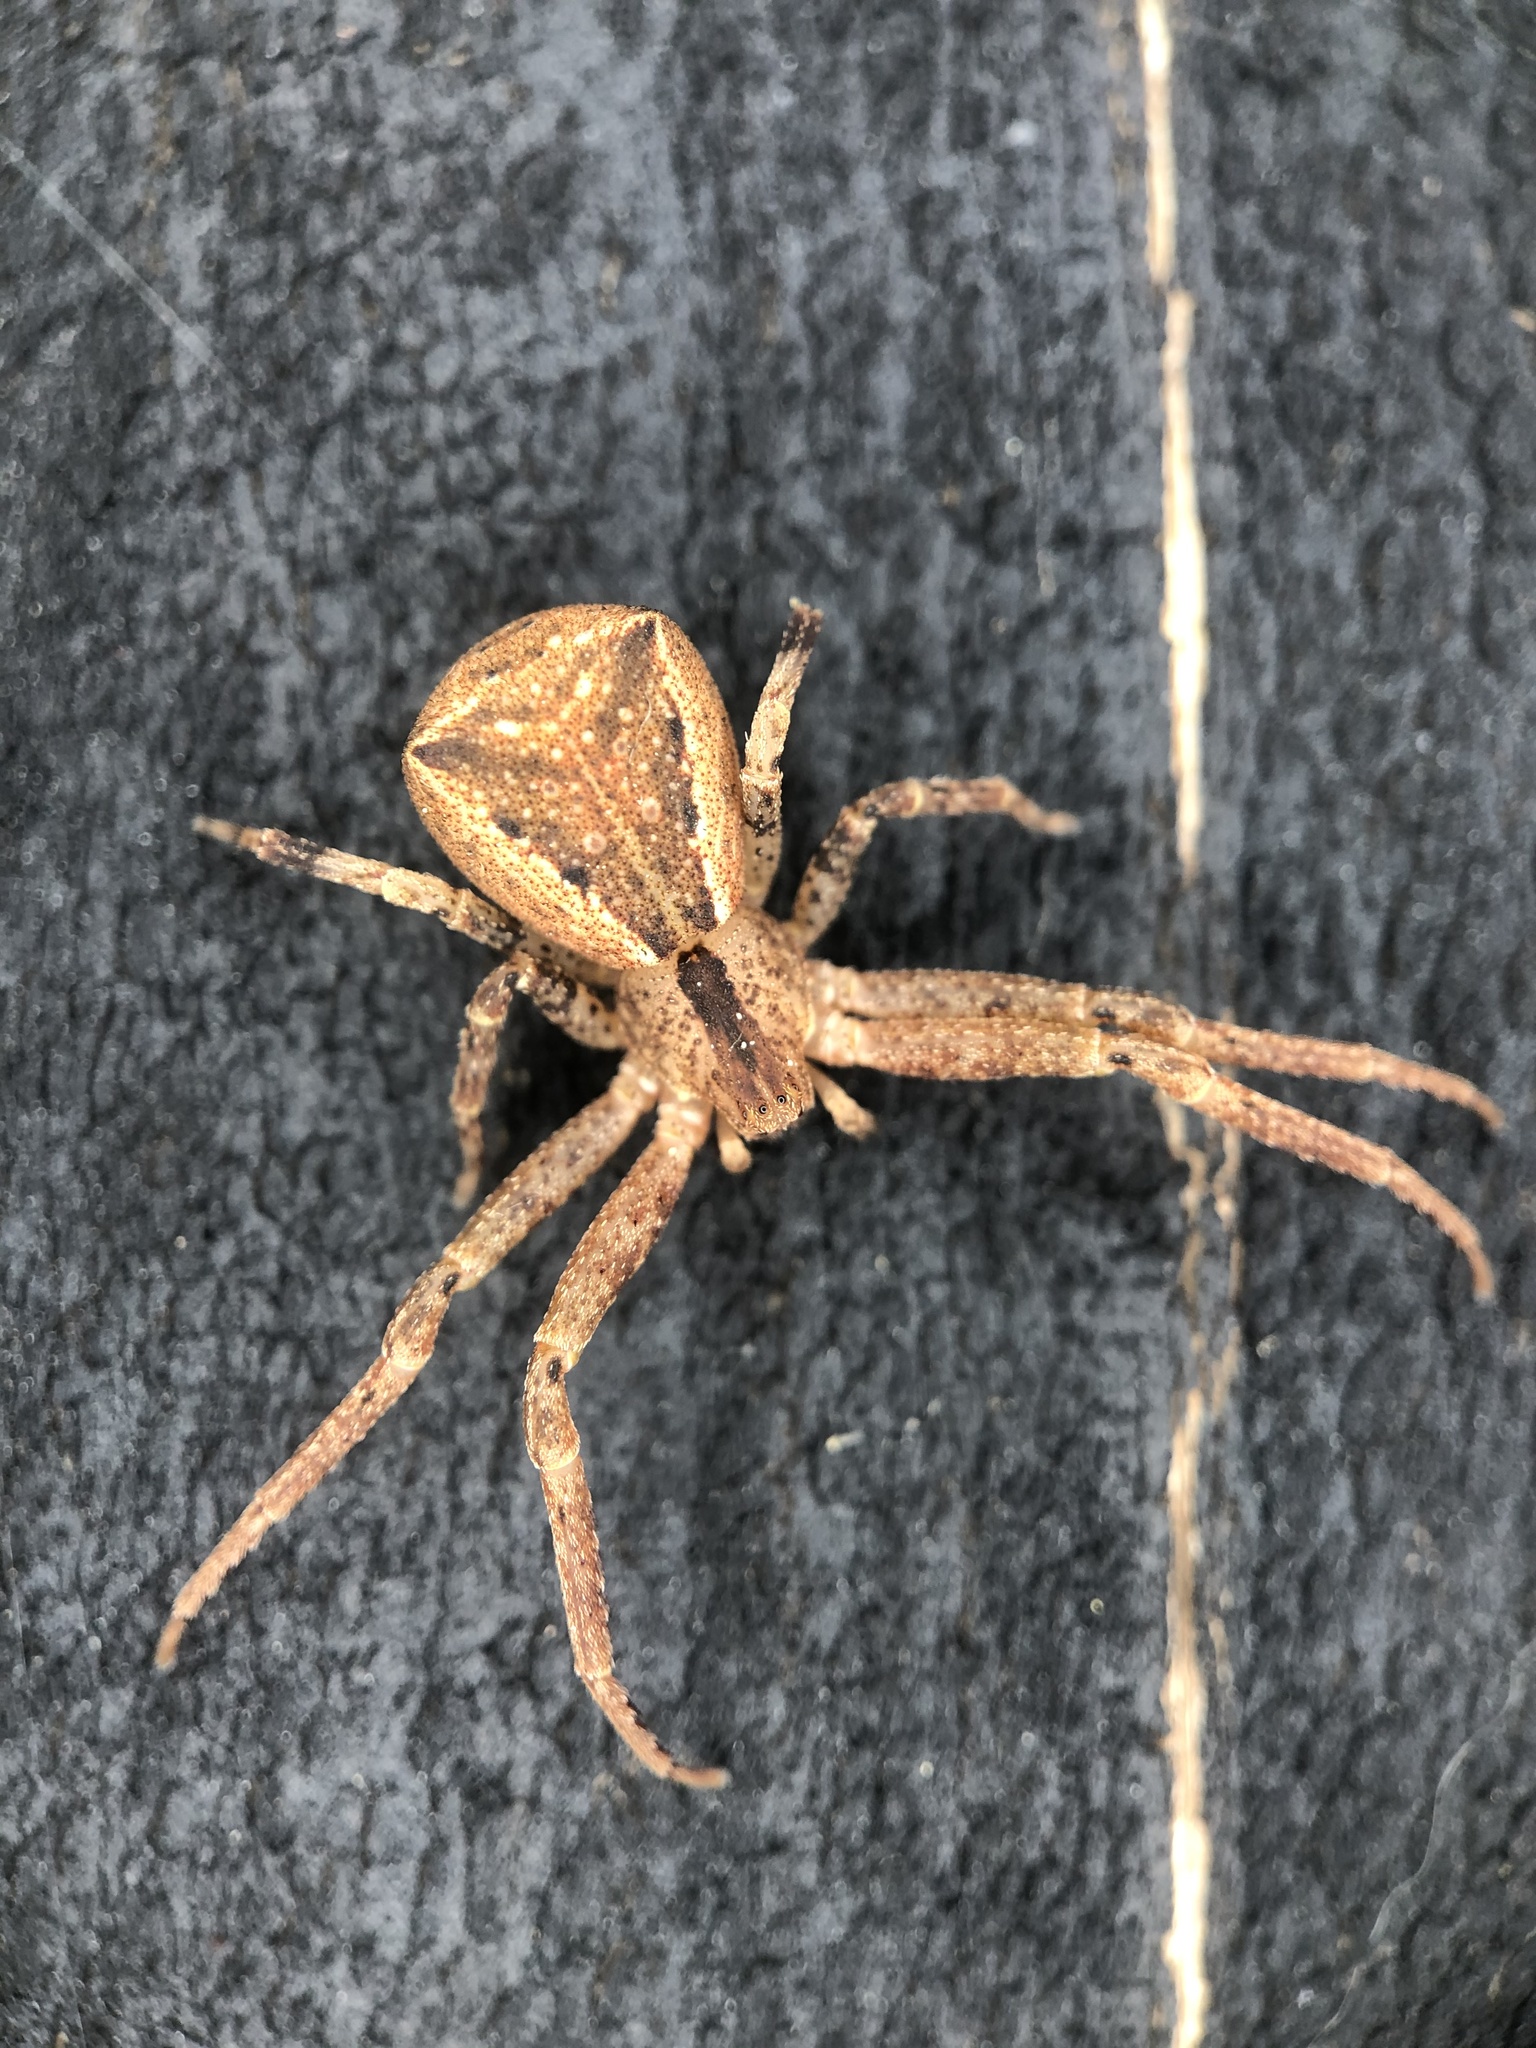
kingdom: Animalia
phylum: Arthropoda
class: Arachnida
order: Araneae
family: Thomisidae
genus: Sidymella
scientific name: Sidymella trapezia
